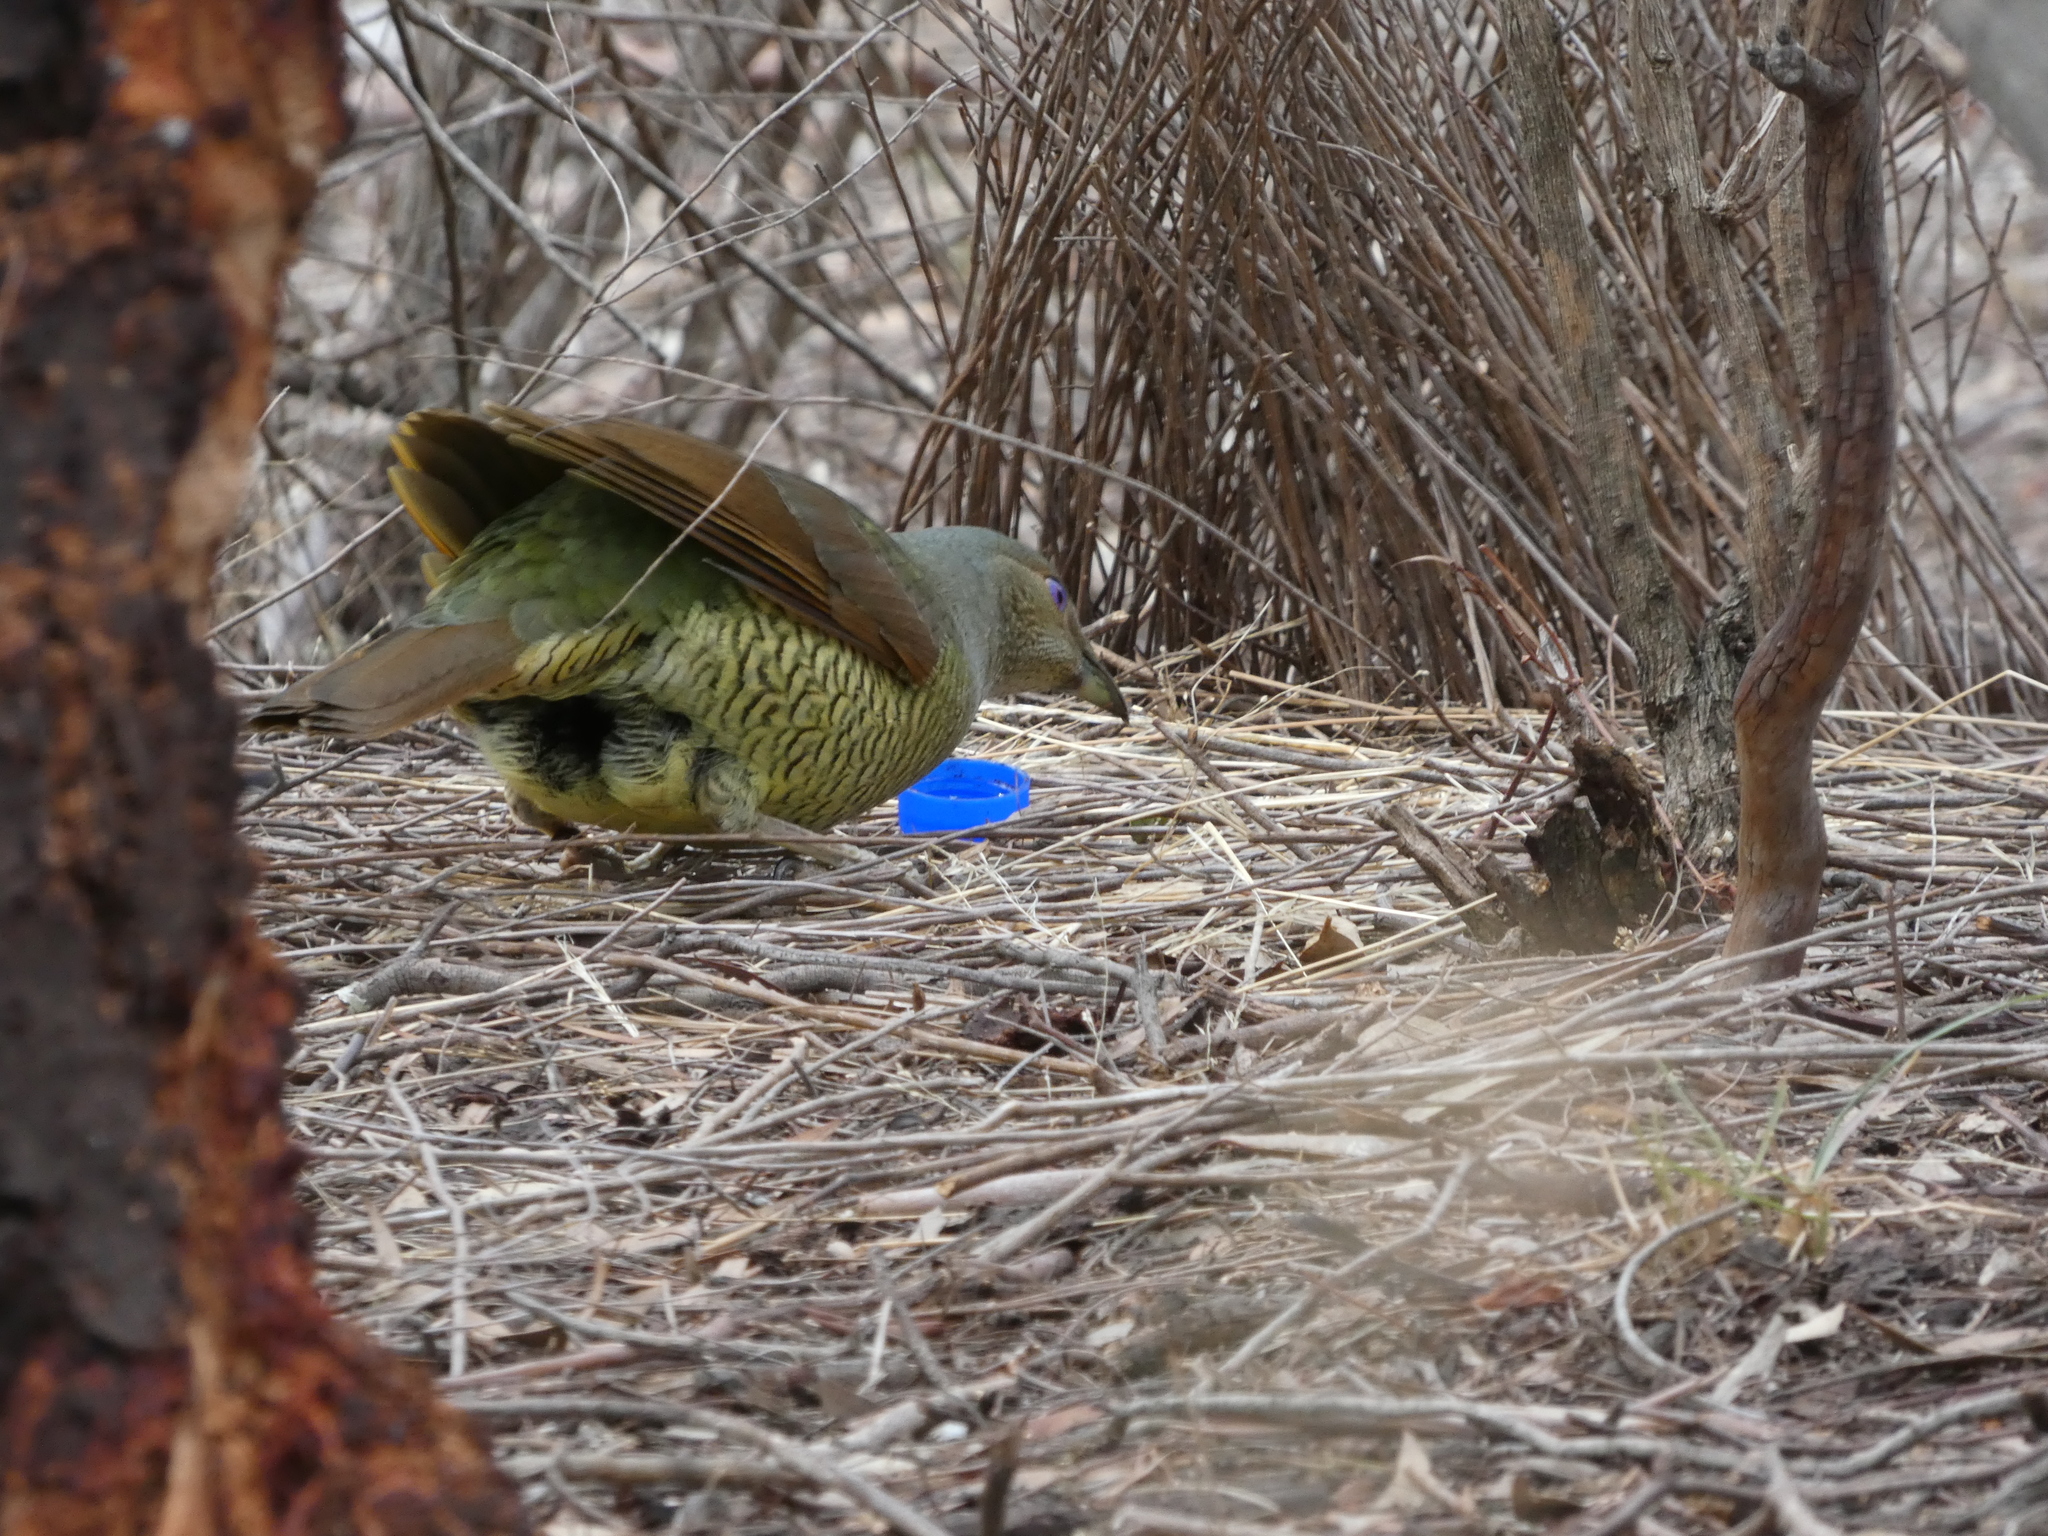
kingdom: Animalia
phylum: Chordata
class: Aves
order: Passeriformes
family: Ptilonorhynchidae
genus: Ptilonorhynchus
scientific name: Ptilonorhynchus violaceus
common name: Satin bowerbird
